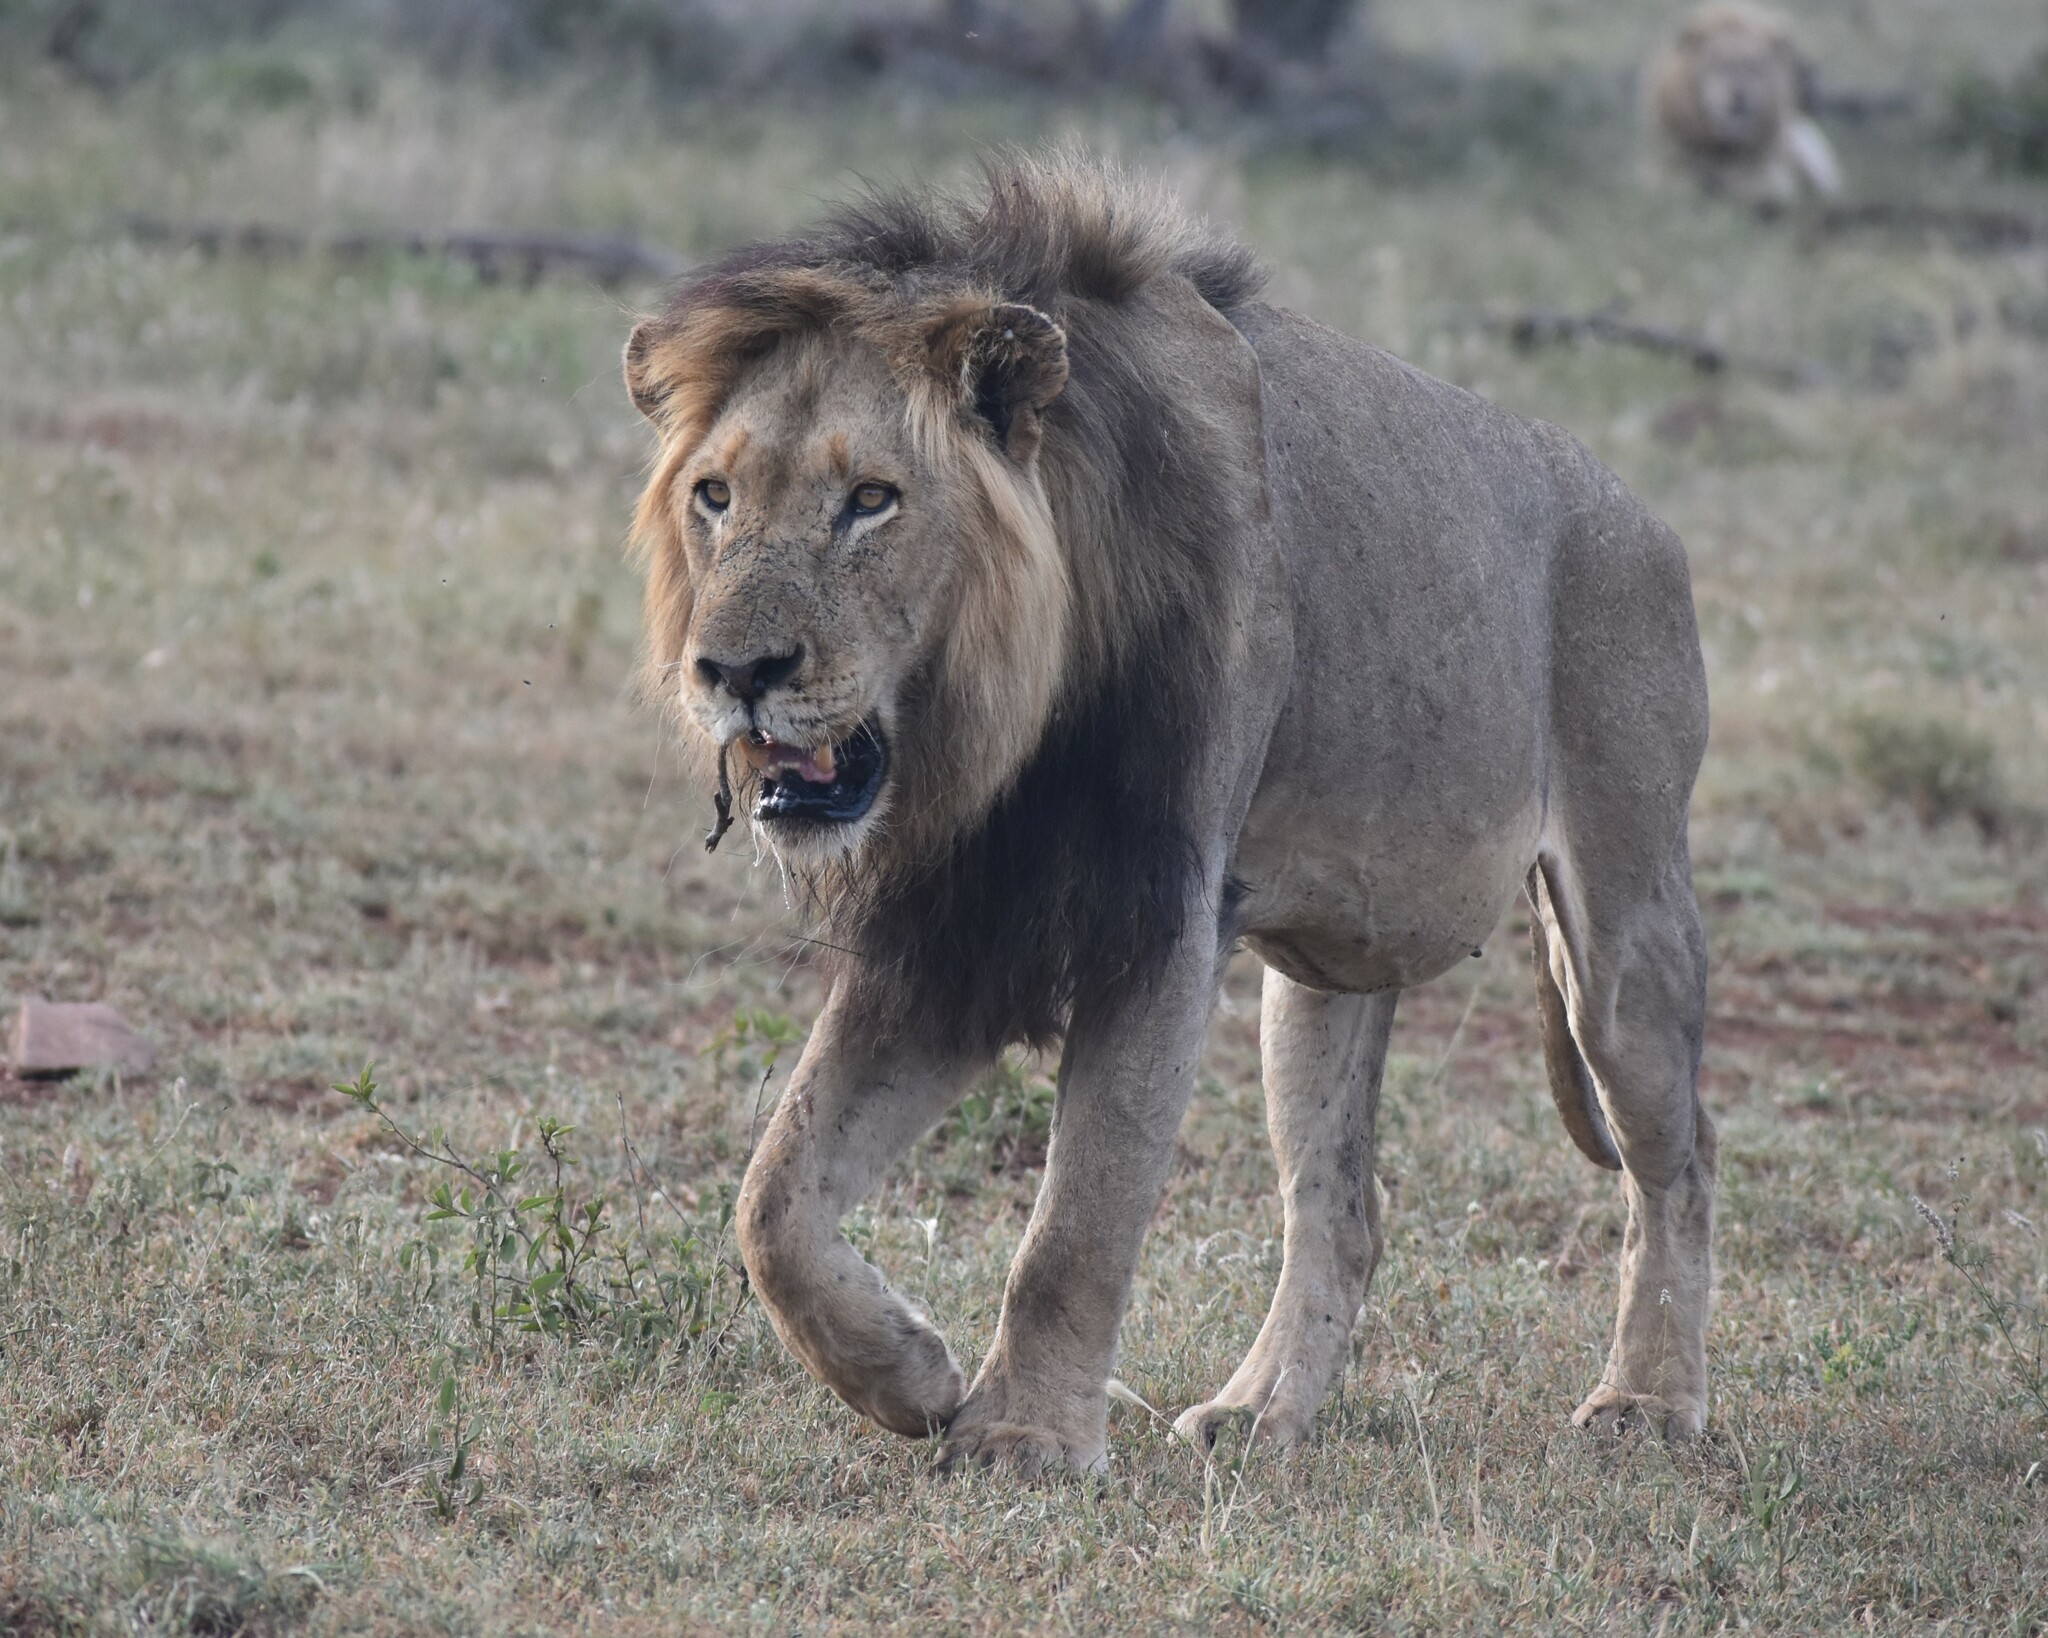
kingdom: Animalia
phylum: Chordata
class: Mammalia
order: Carnivora
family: Felidae
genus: Panthera
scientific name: Panthera leo
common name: Lion
